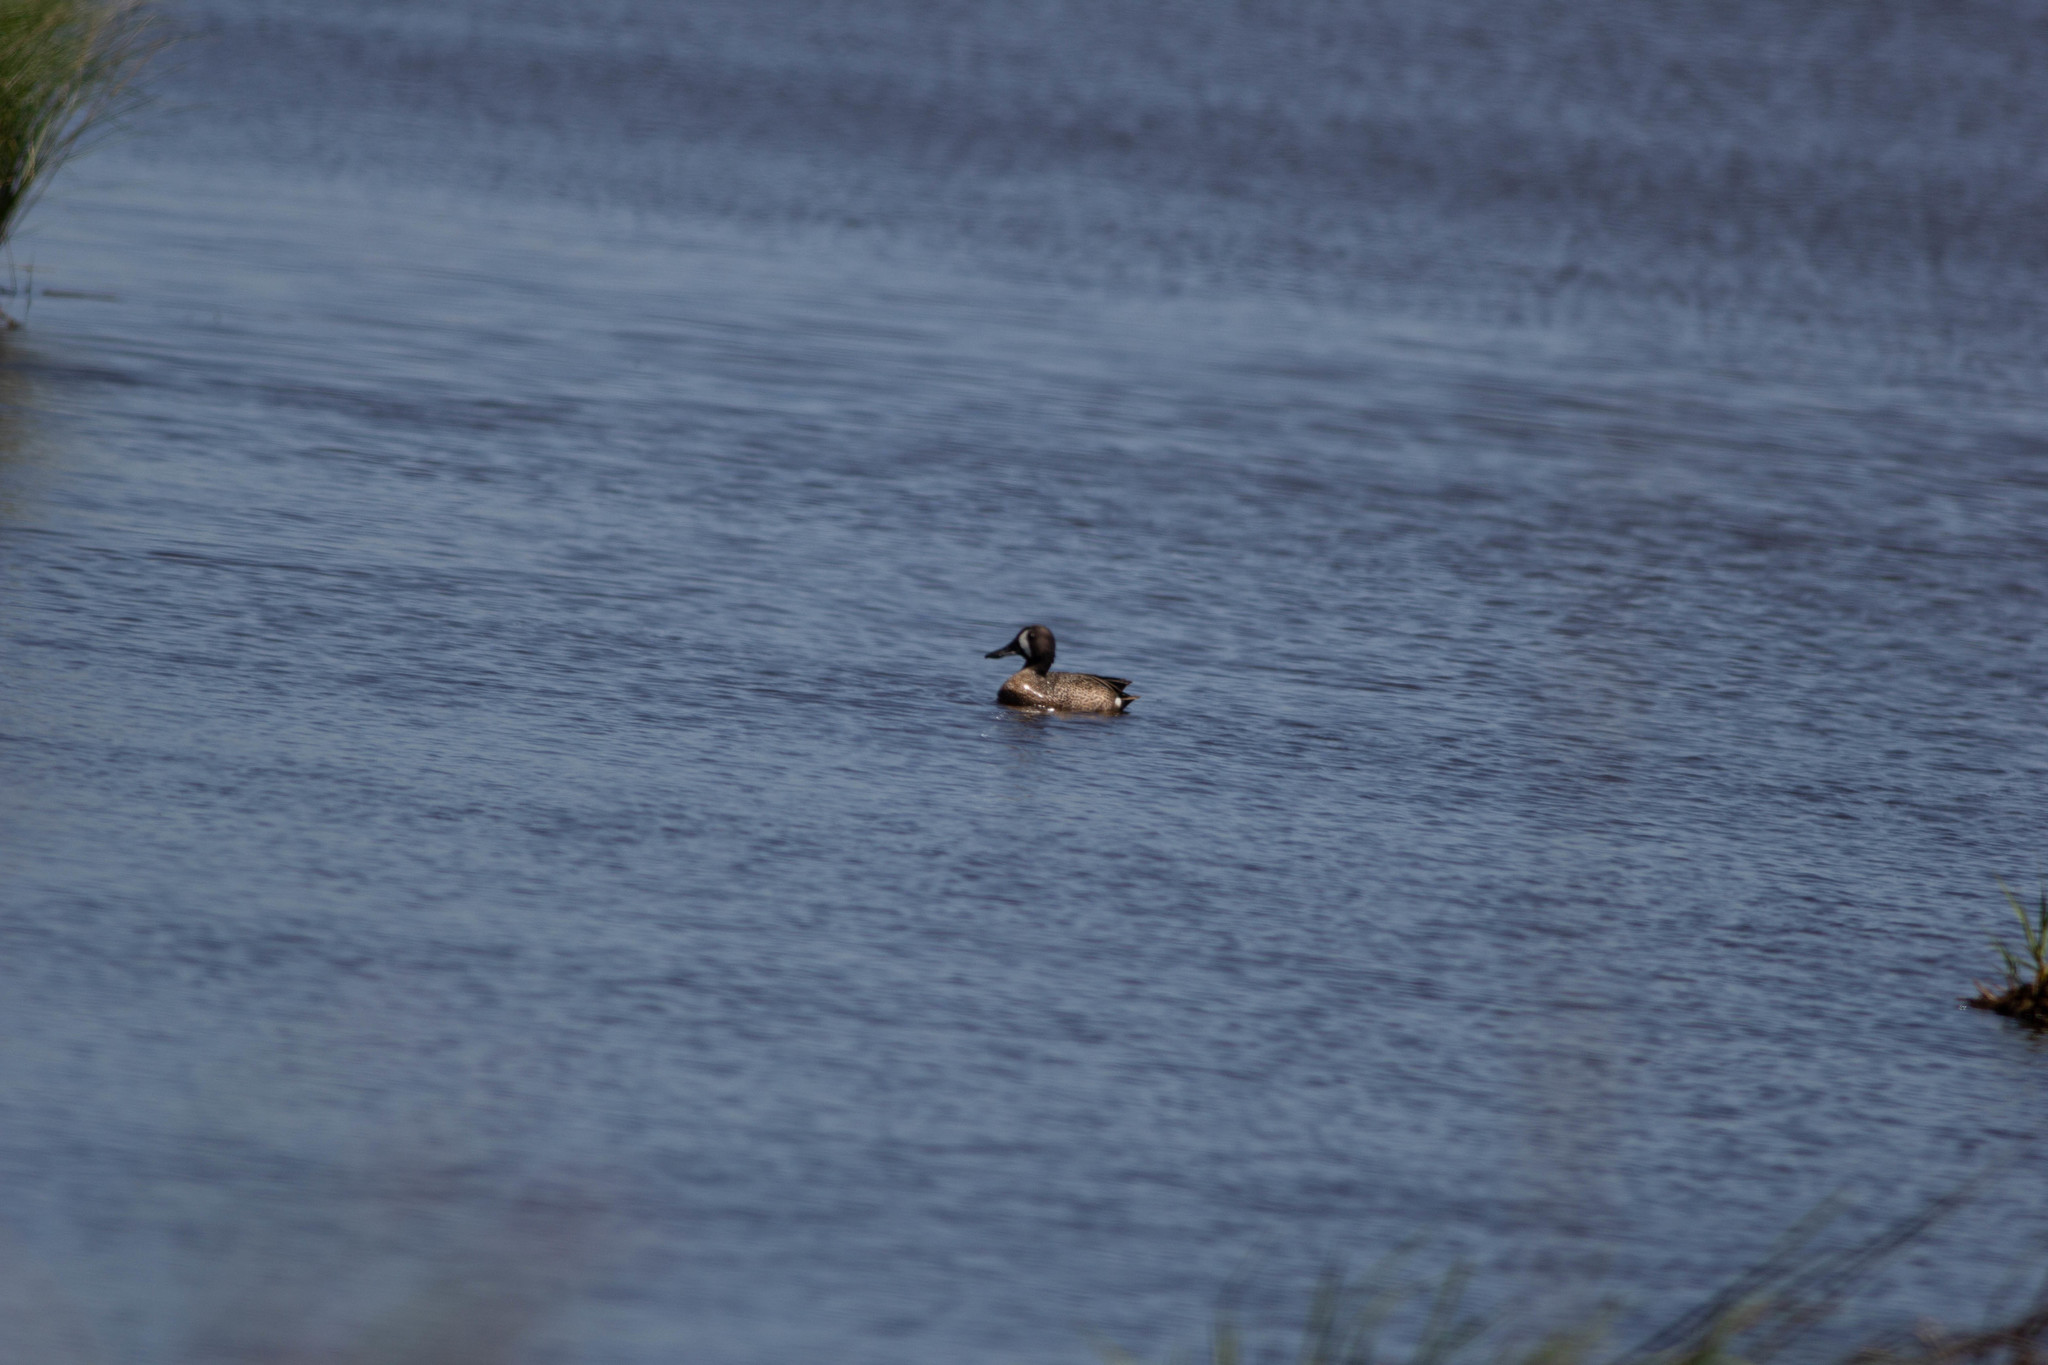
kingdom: Animalia
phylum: Chordata
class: Aves
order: Anseriformes
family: Anatidae
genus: Spatula
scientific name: Spatula discors
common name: Blue-winged teal
